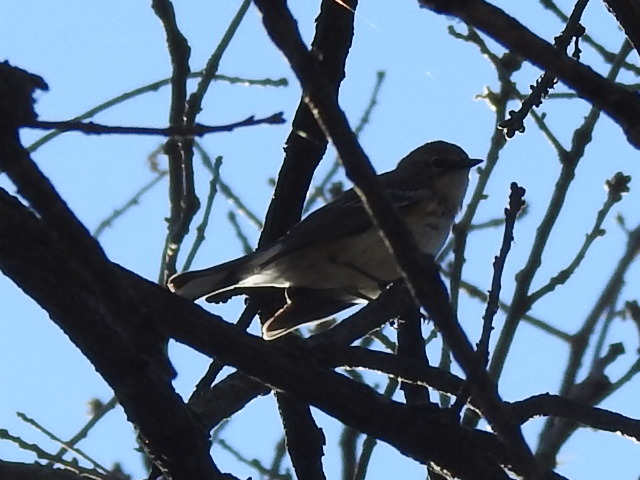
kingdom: Animalia
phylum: Chordata
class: Aves
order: Passeriformes
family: Parulidae
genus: Setophaga
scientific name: Setophaga coronata
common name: Myrtle warbler
